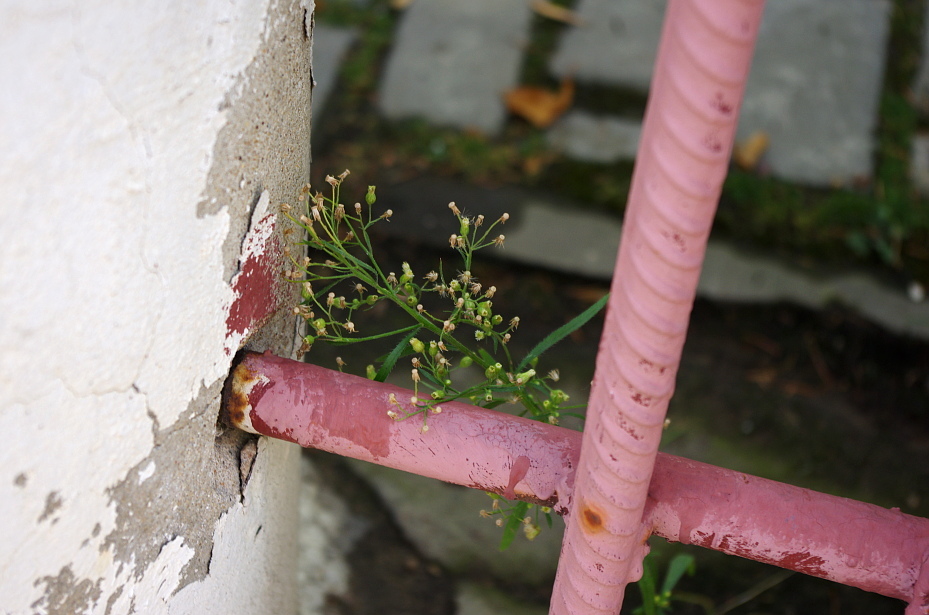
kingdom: Plantae
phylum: Tracheophyta
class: Magnoliopsida
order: Asterales
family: Asteraceae
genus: Erigeron
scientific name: Erigeron canadensis
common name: Canadian fleabane
